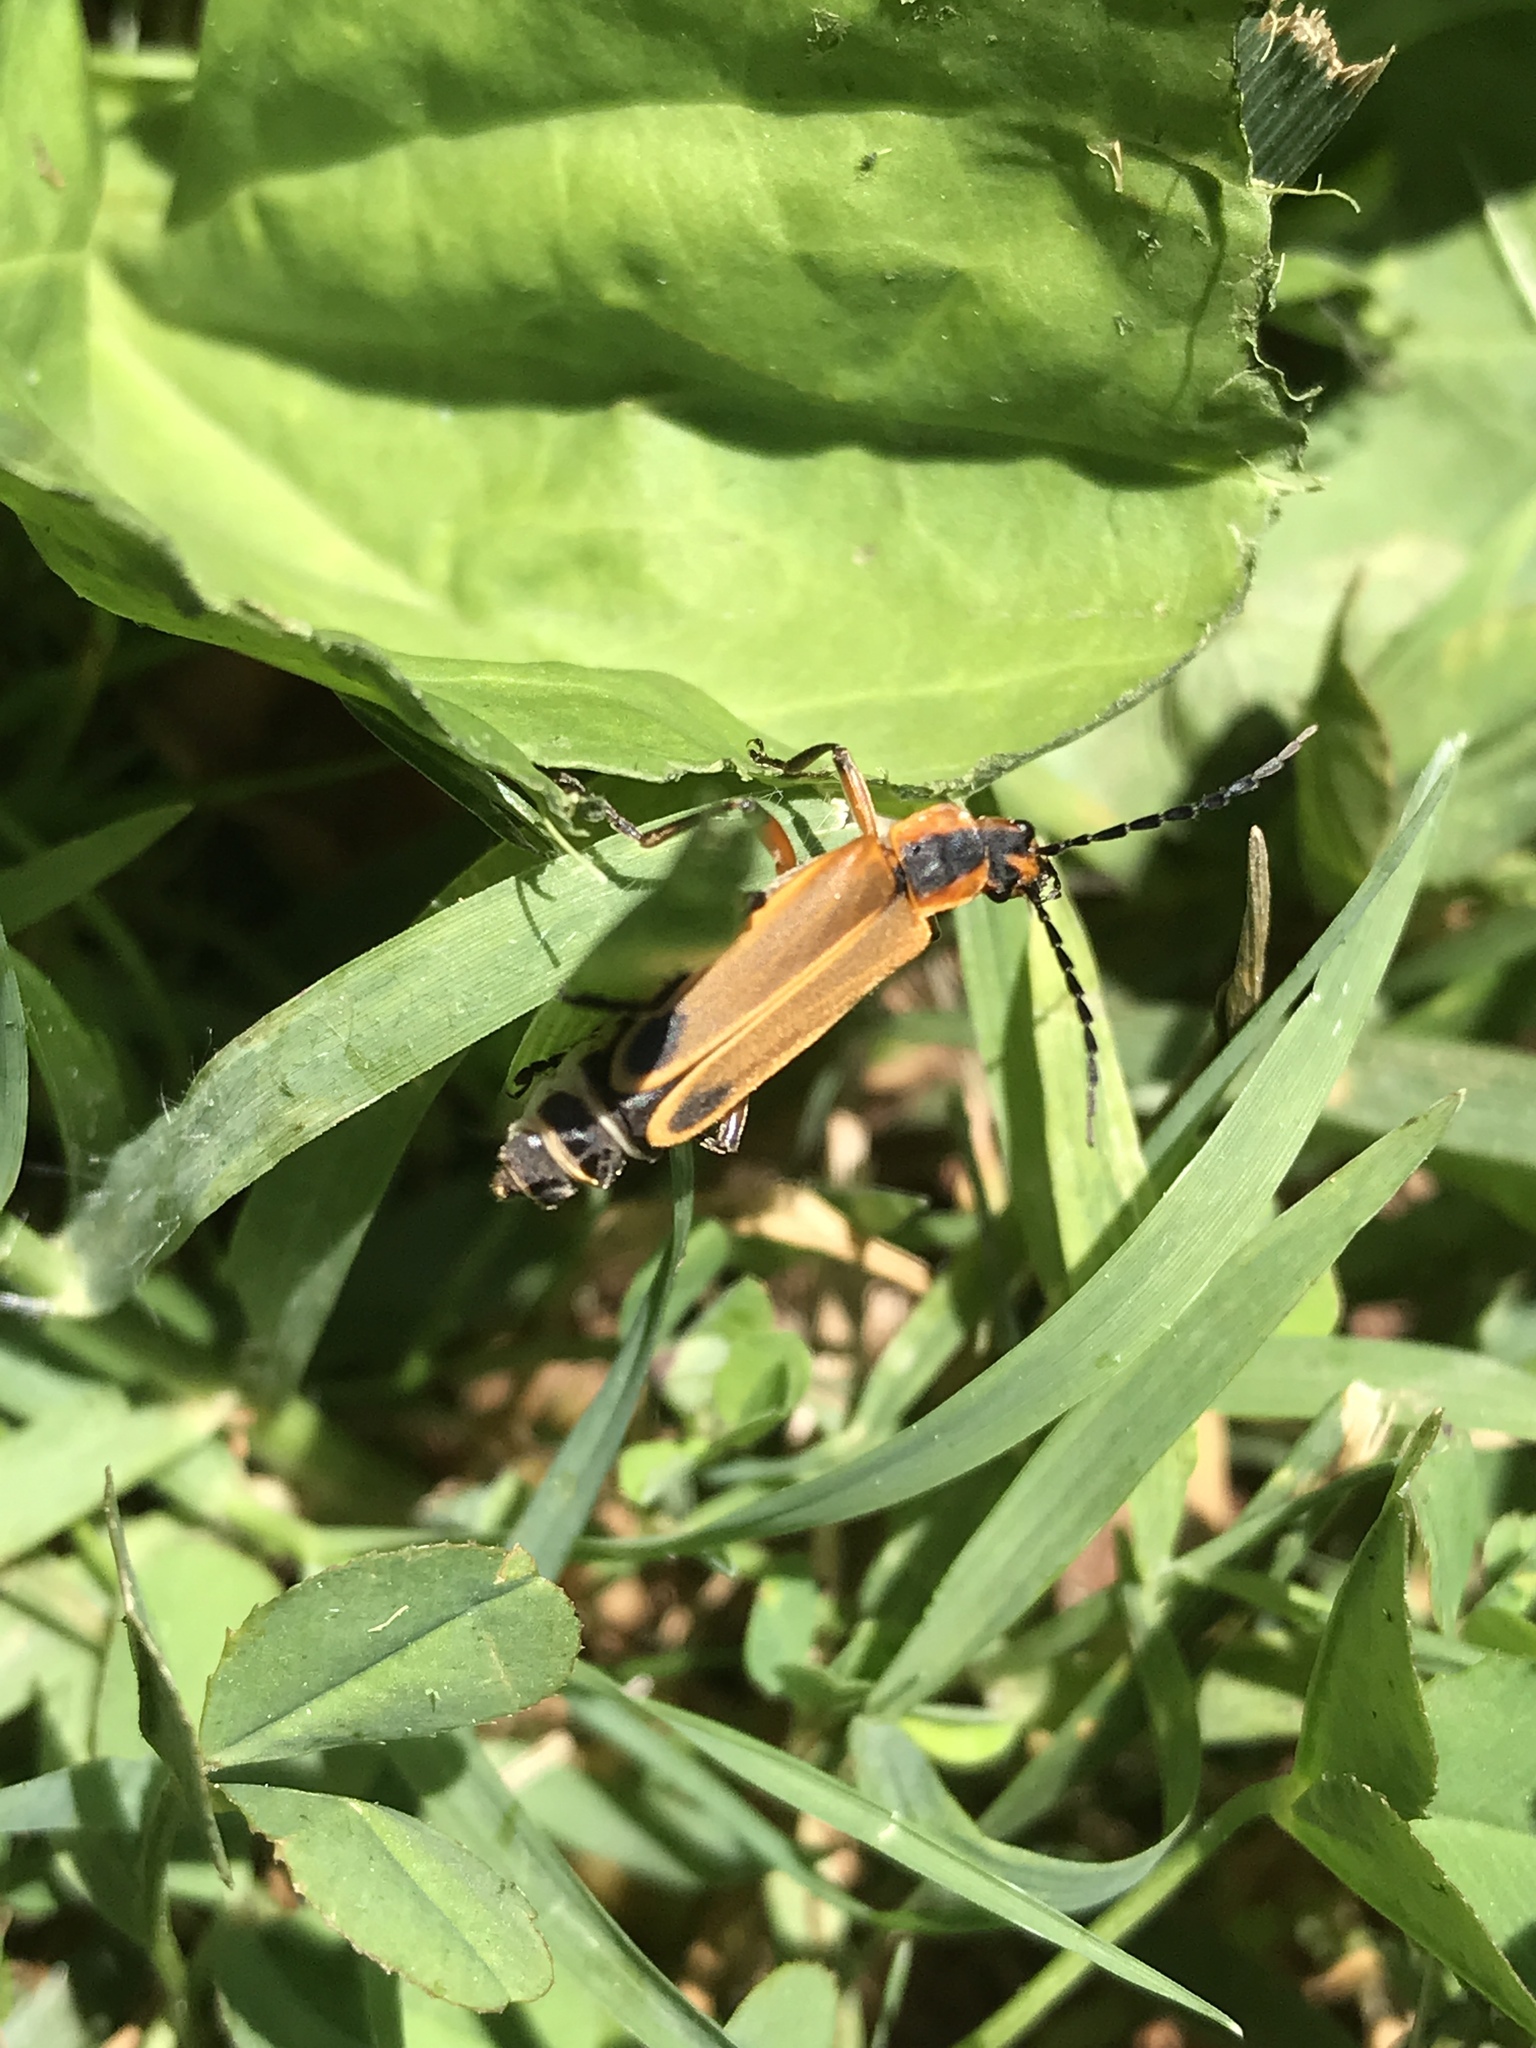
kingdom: Animalia
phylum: Arthropoda
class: Insecta
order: Coleoptera
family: Cantharidae
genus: Chauliognathus
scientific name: Chauliognathus marginatus
